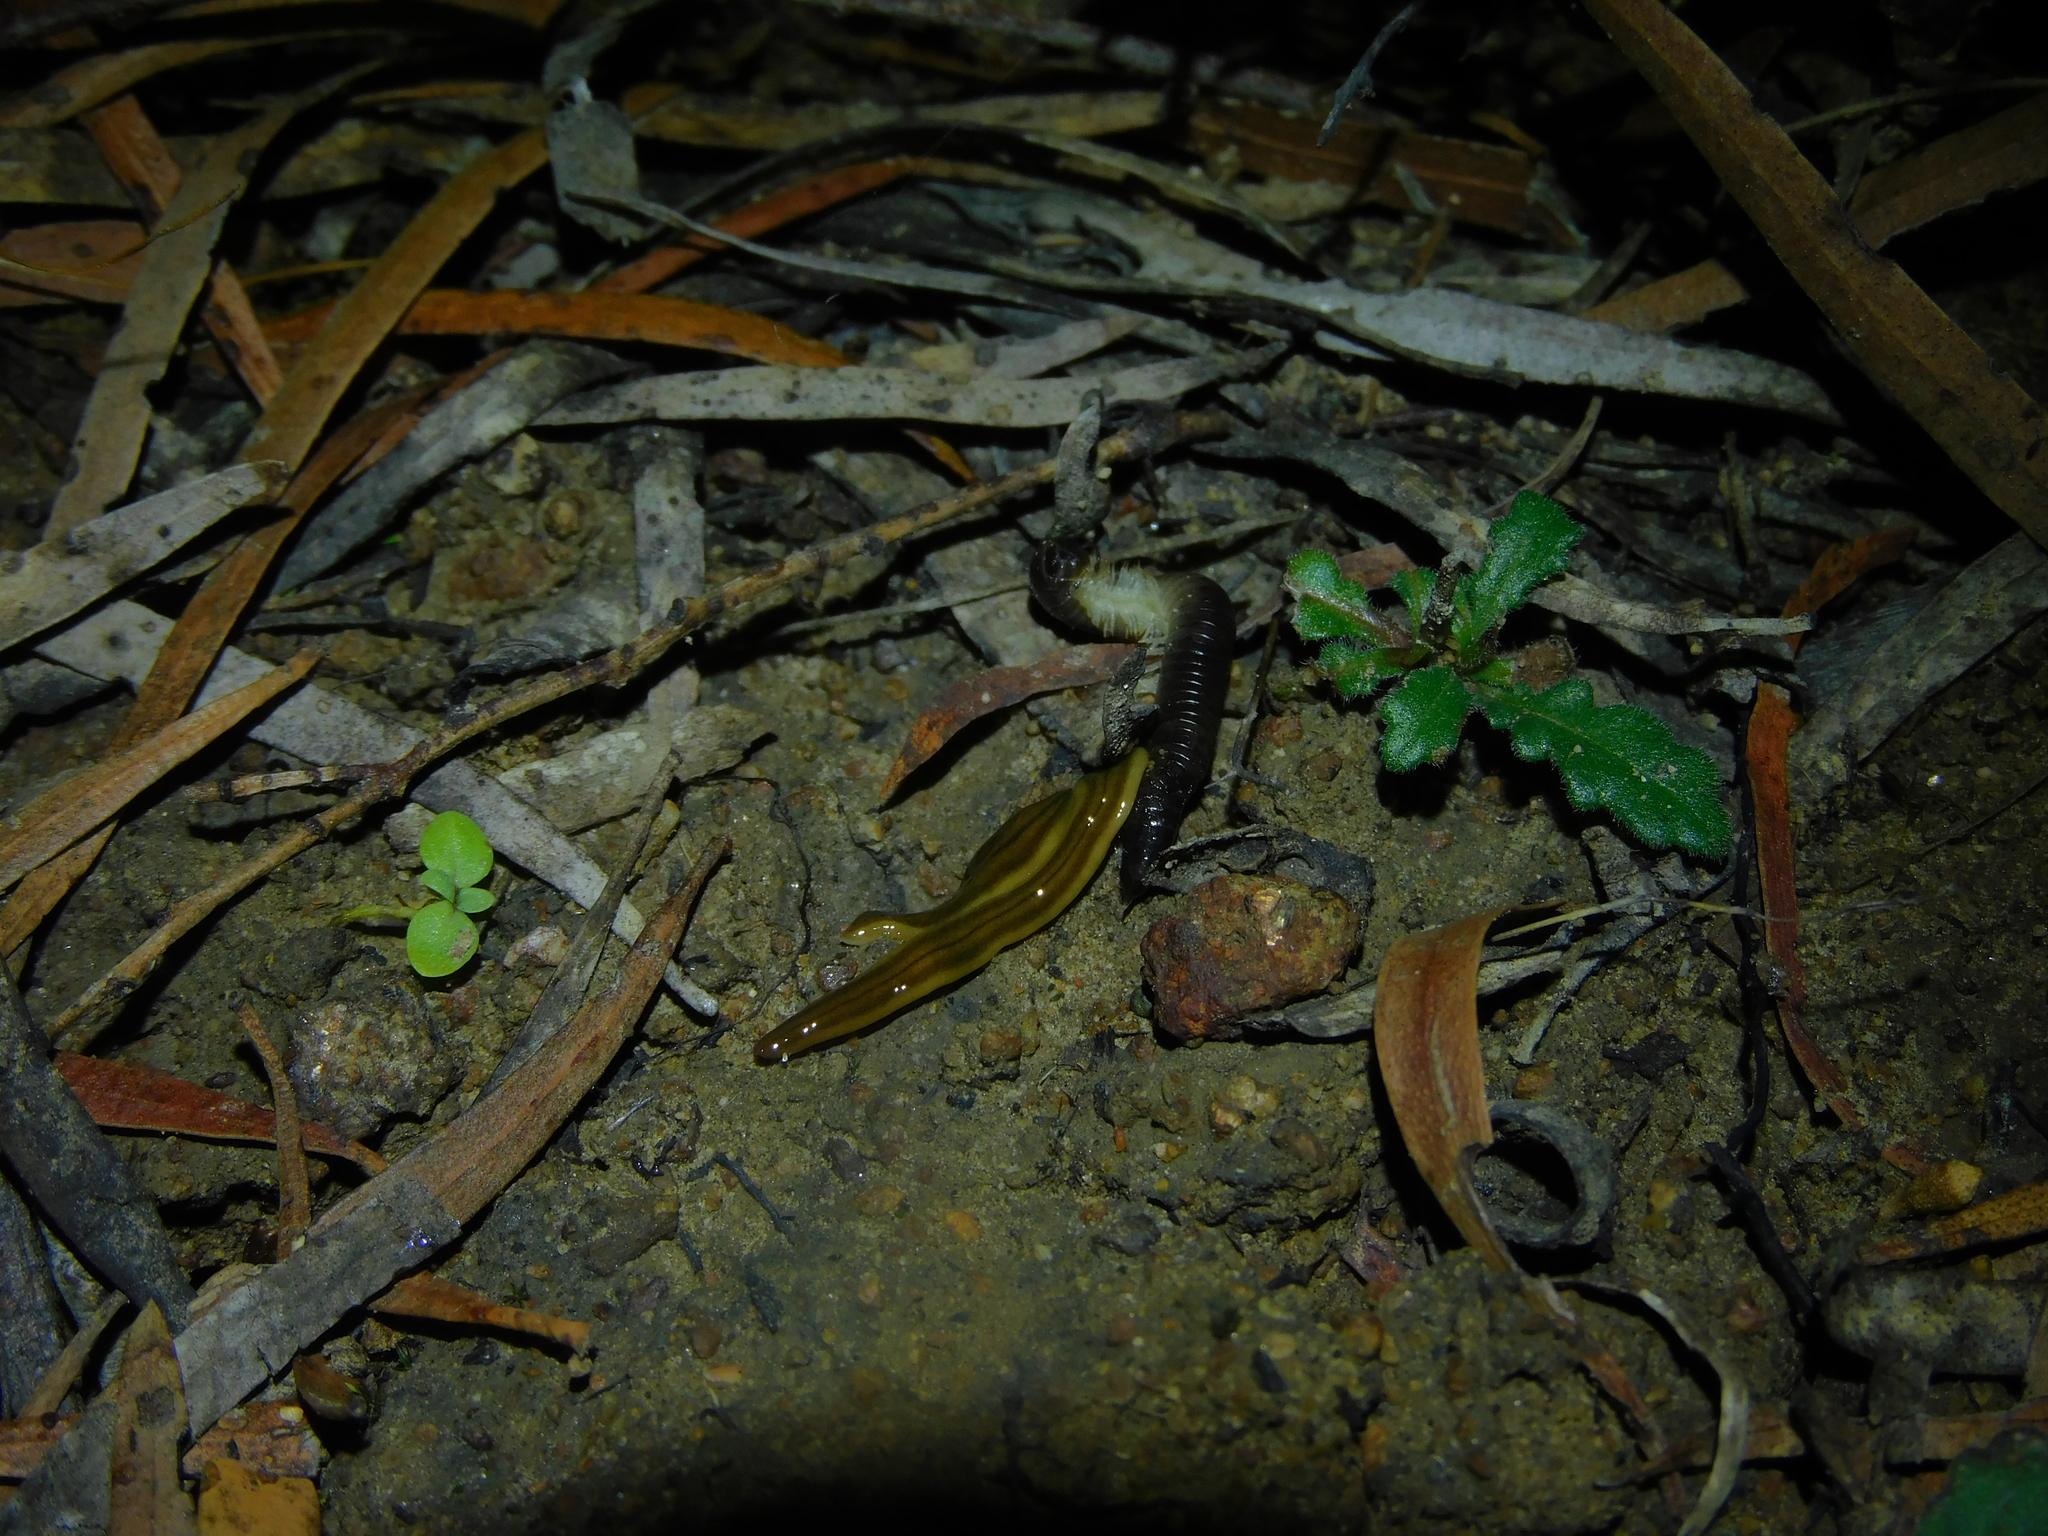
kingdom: Animalia
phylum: Platyhelminthes
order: Tricladida
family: Geoplanidae
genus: Tasmanoplana
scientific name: Tasmanoplana tasmaniana
